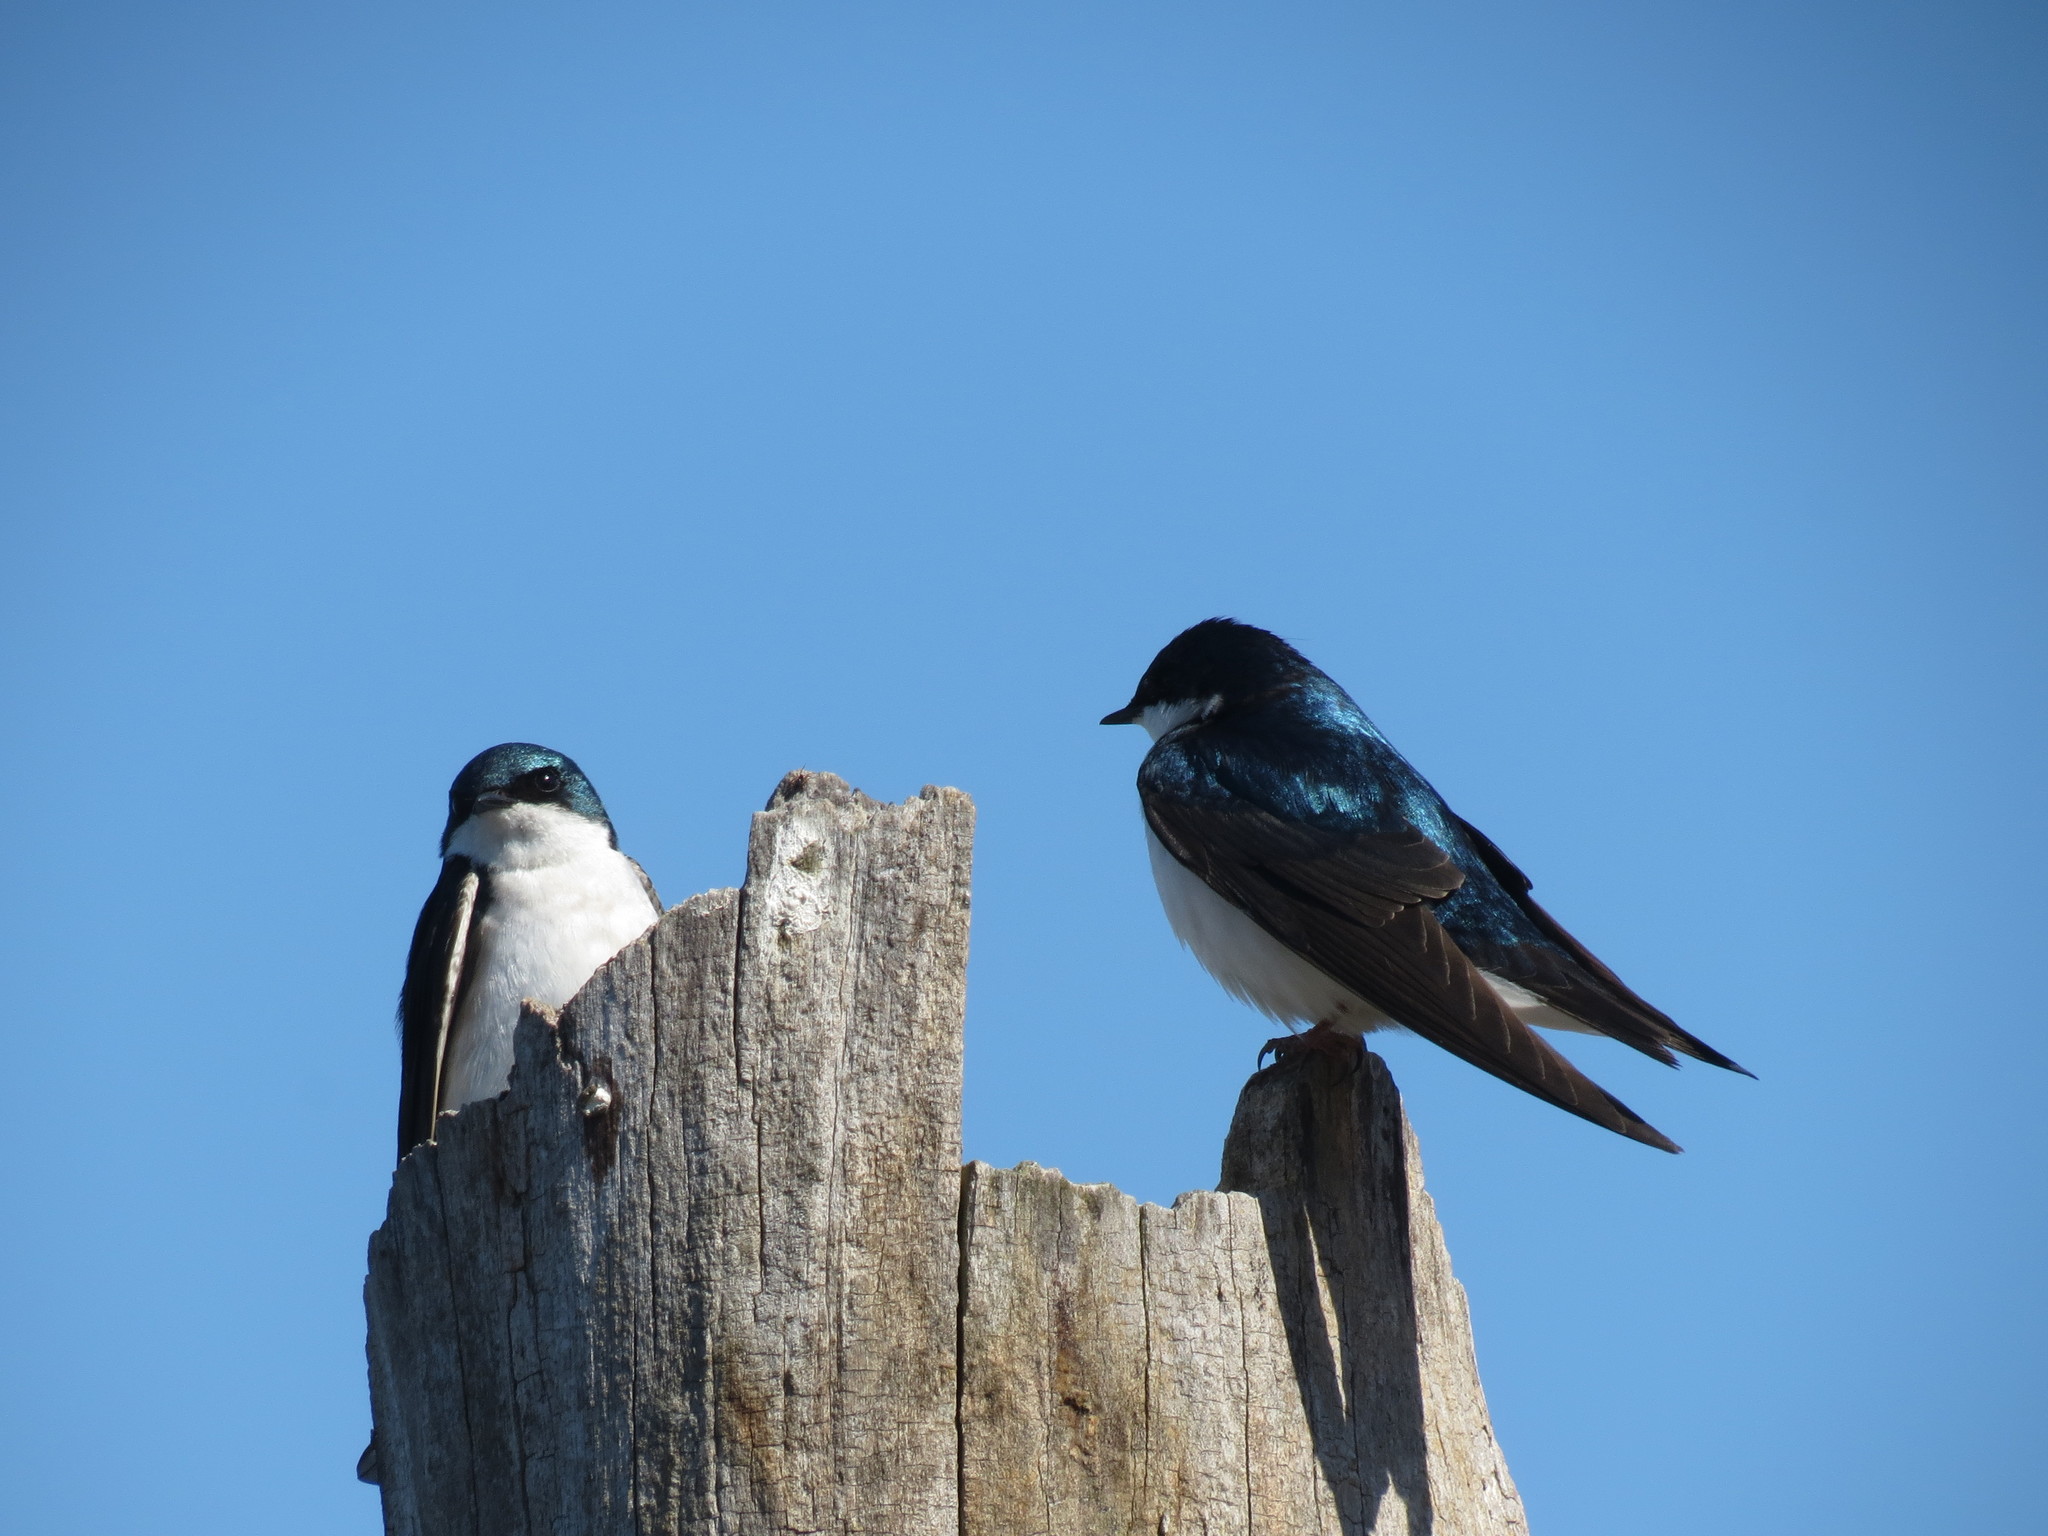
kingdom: Animalia
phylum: Chordata
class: Aves
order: Passeriformes
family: Hirundinidae
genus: Tachycineta
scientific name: Tachycineta bicolor
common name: Tree swallow
